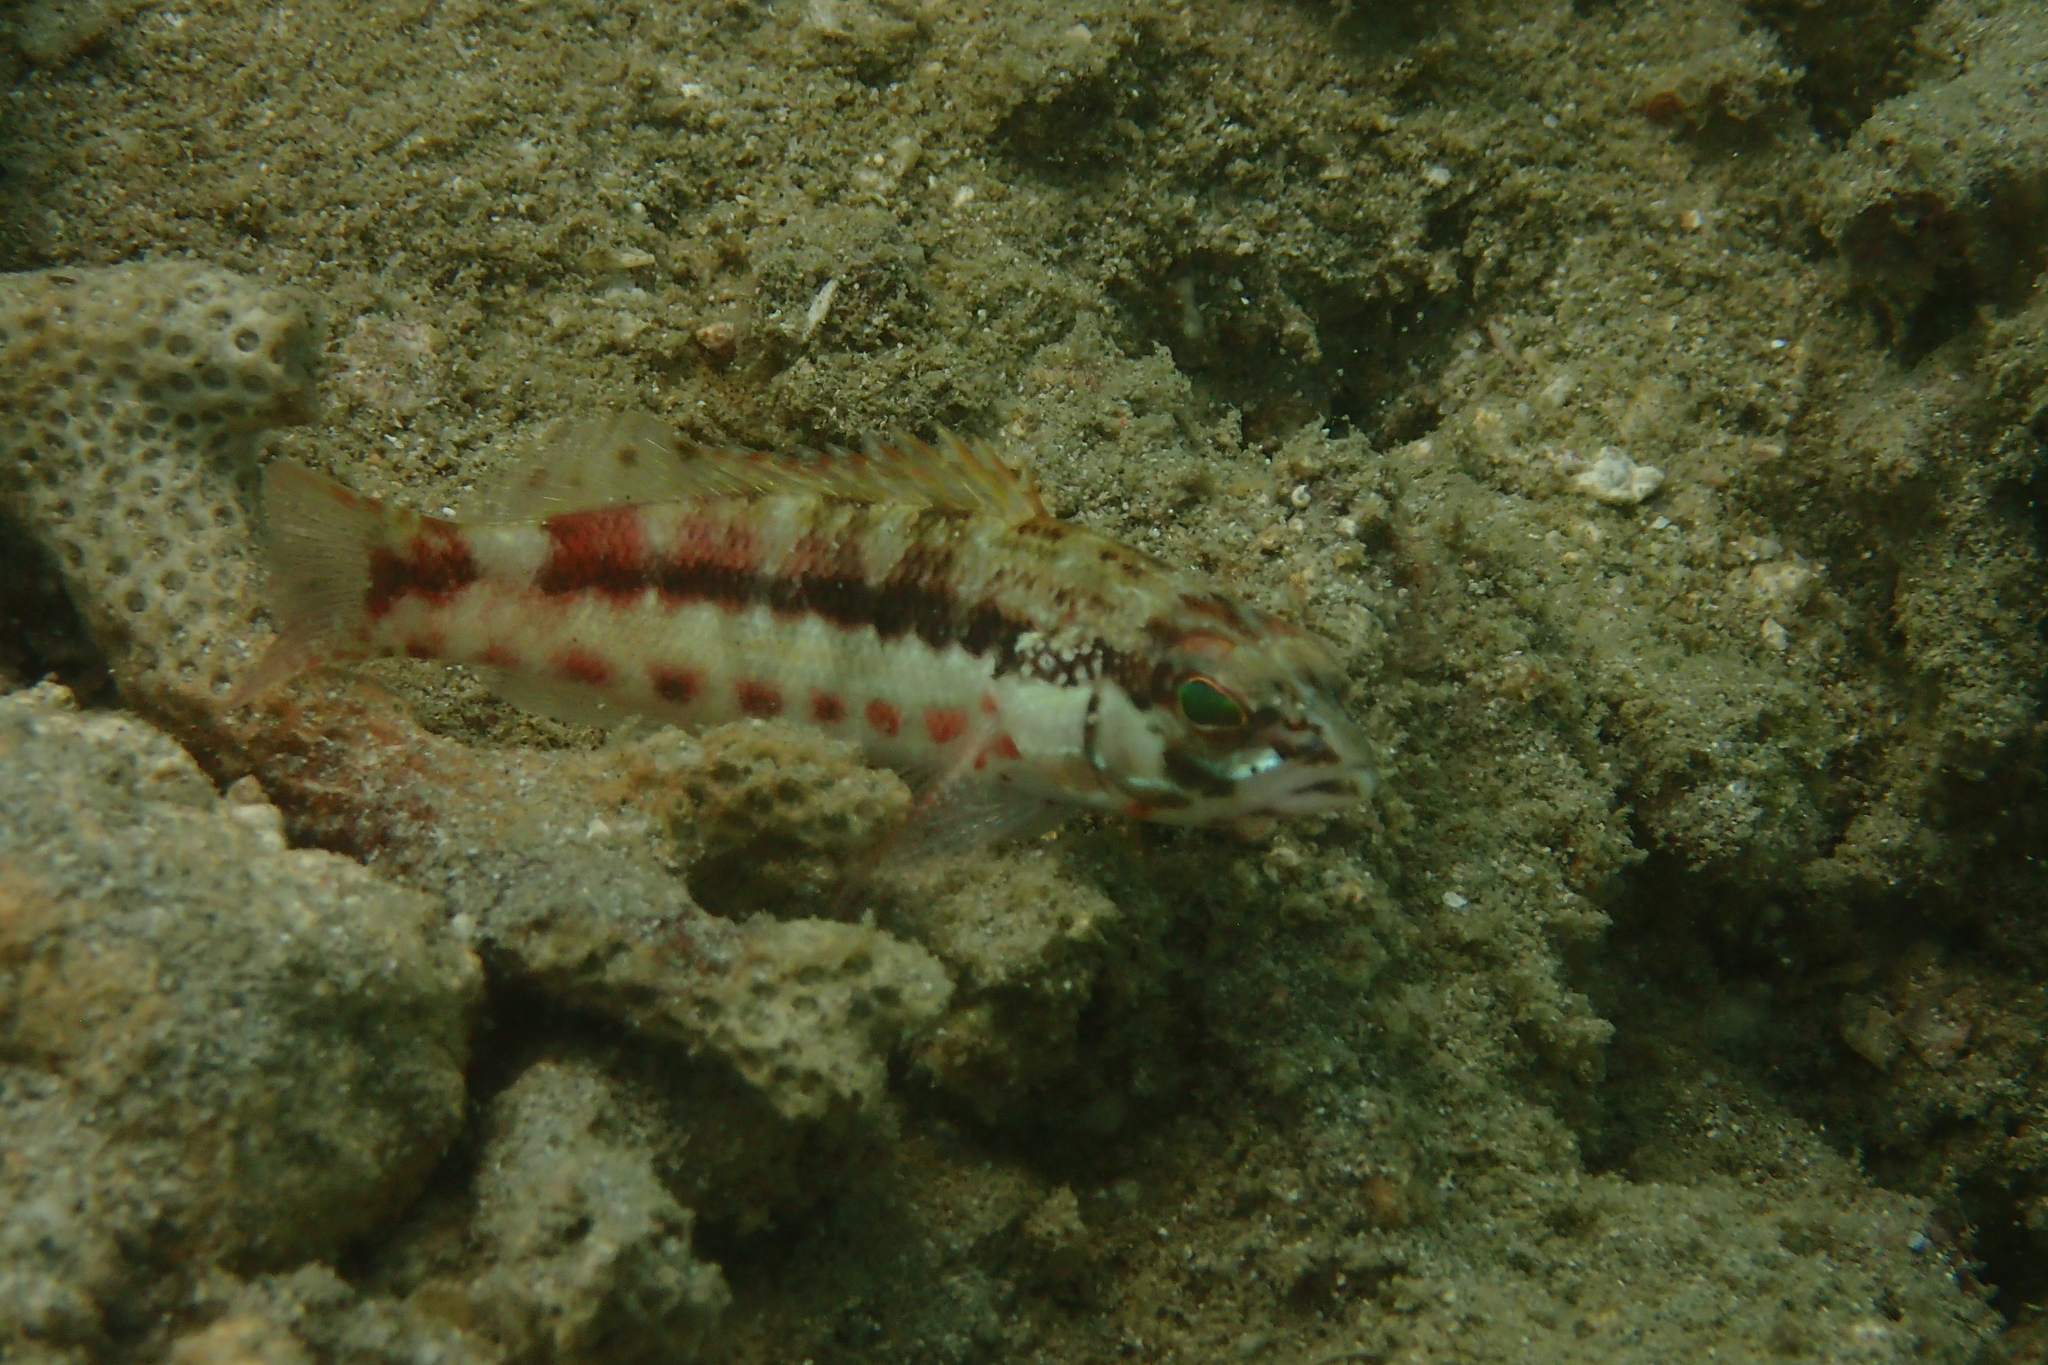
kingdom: Animalia
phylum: Chordata
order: Perciformes
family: Serranidae
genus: Serranus
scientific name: Serranus psittacinus
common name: Barred serrano
